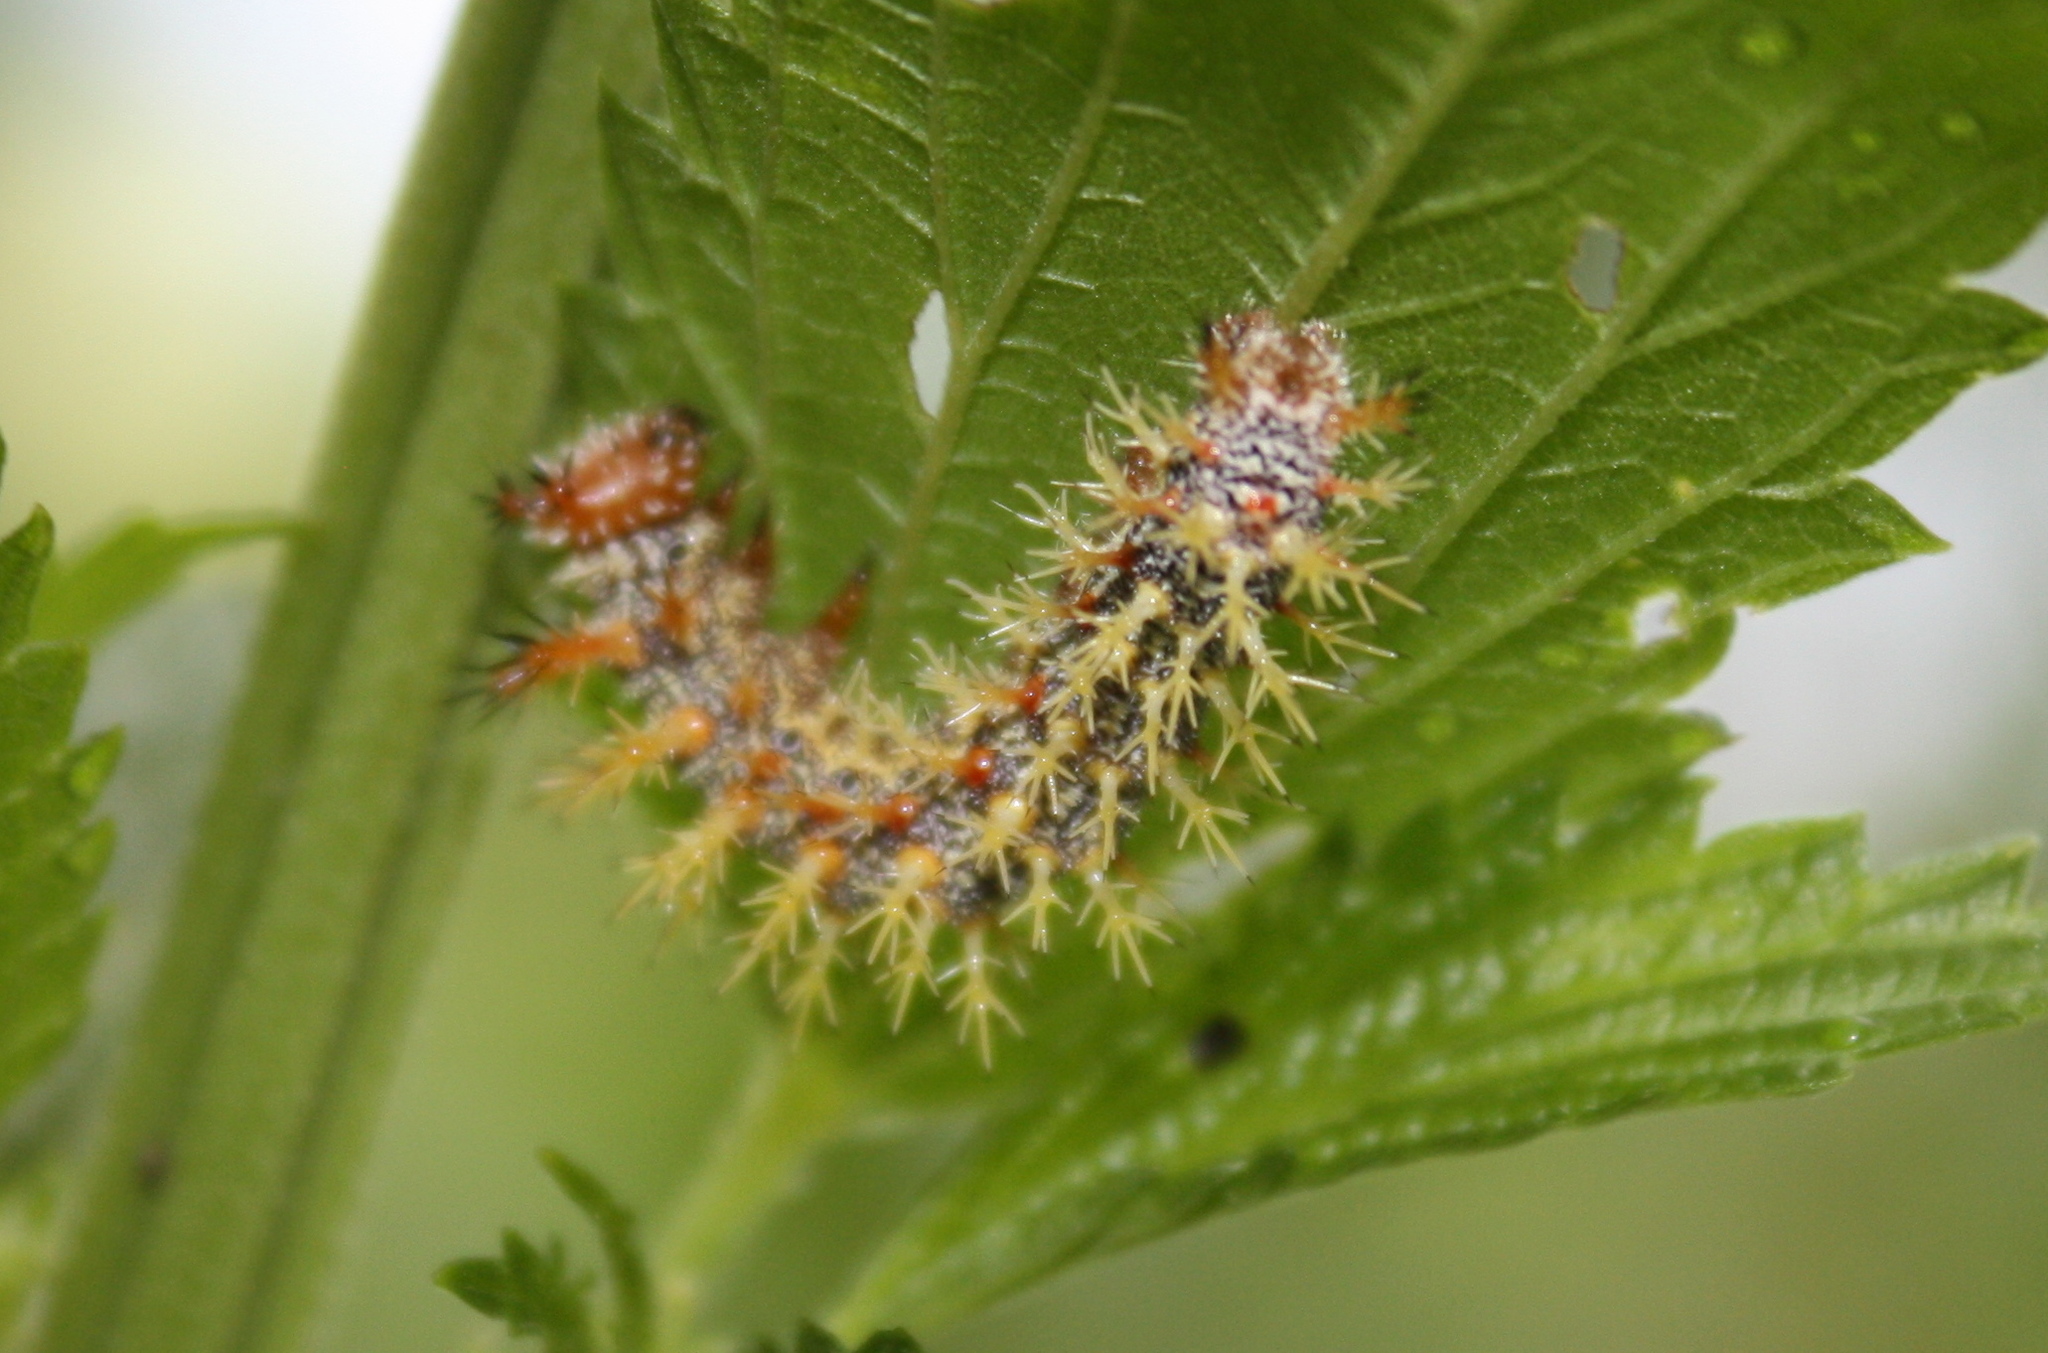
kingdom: Animalia
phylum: Arthropoda
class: Insecta
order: Lepidoptera
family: Nymphalidae
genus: Polygonia
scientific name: Polygonia interrogationis
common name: Question mark
